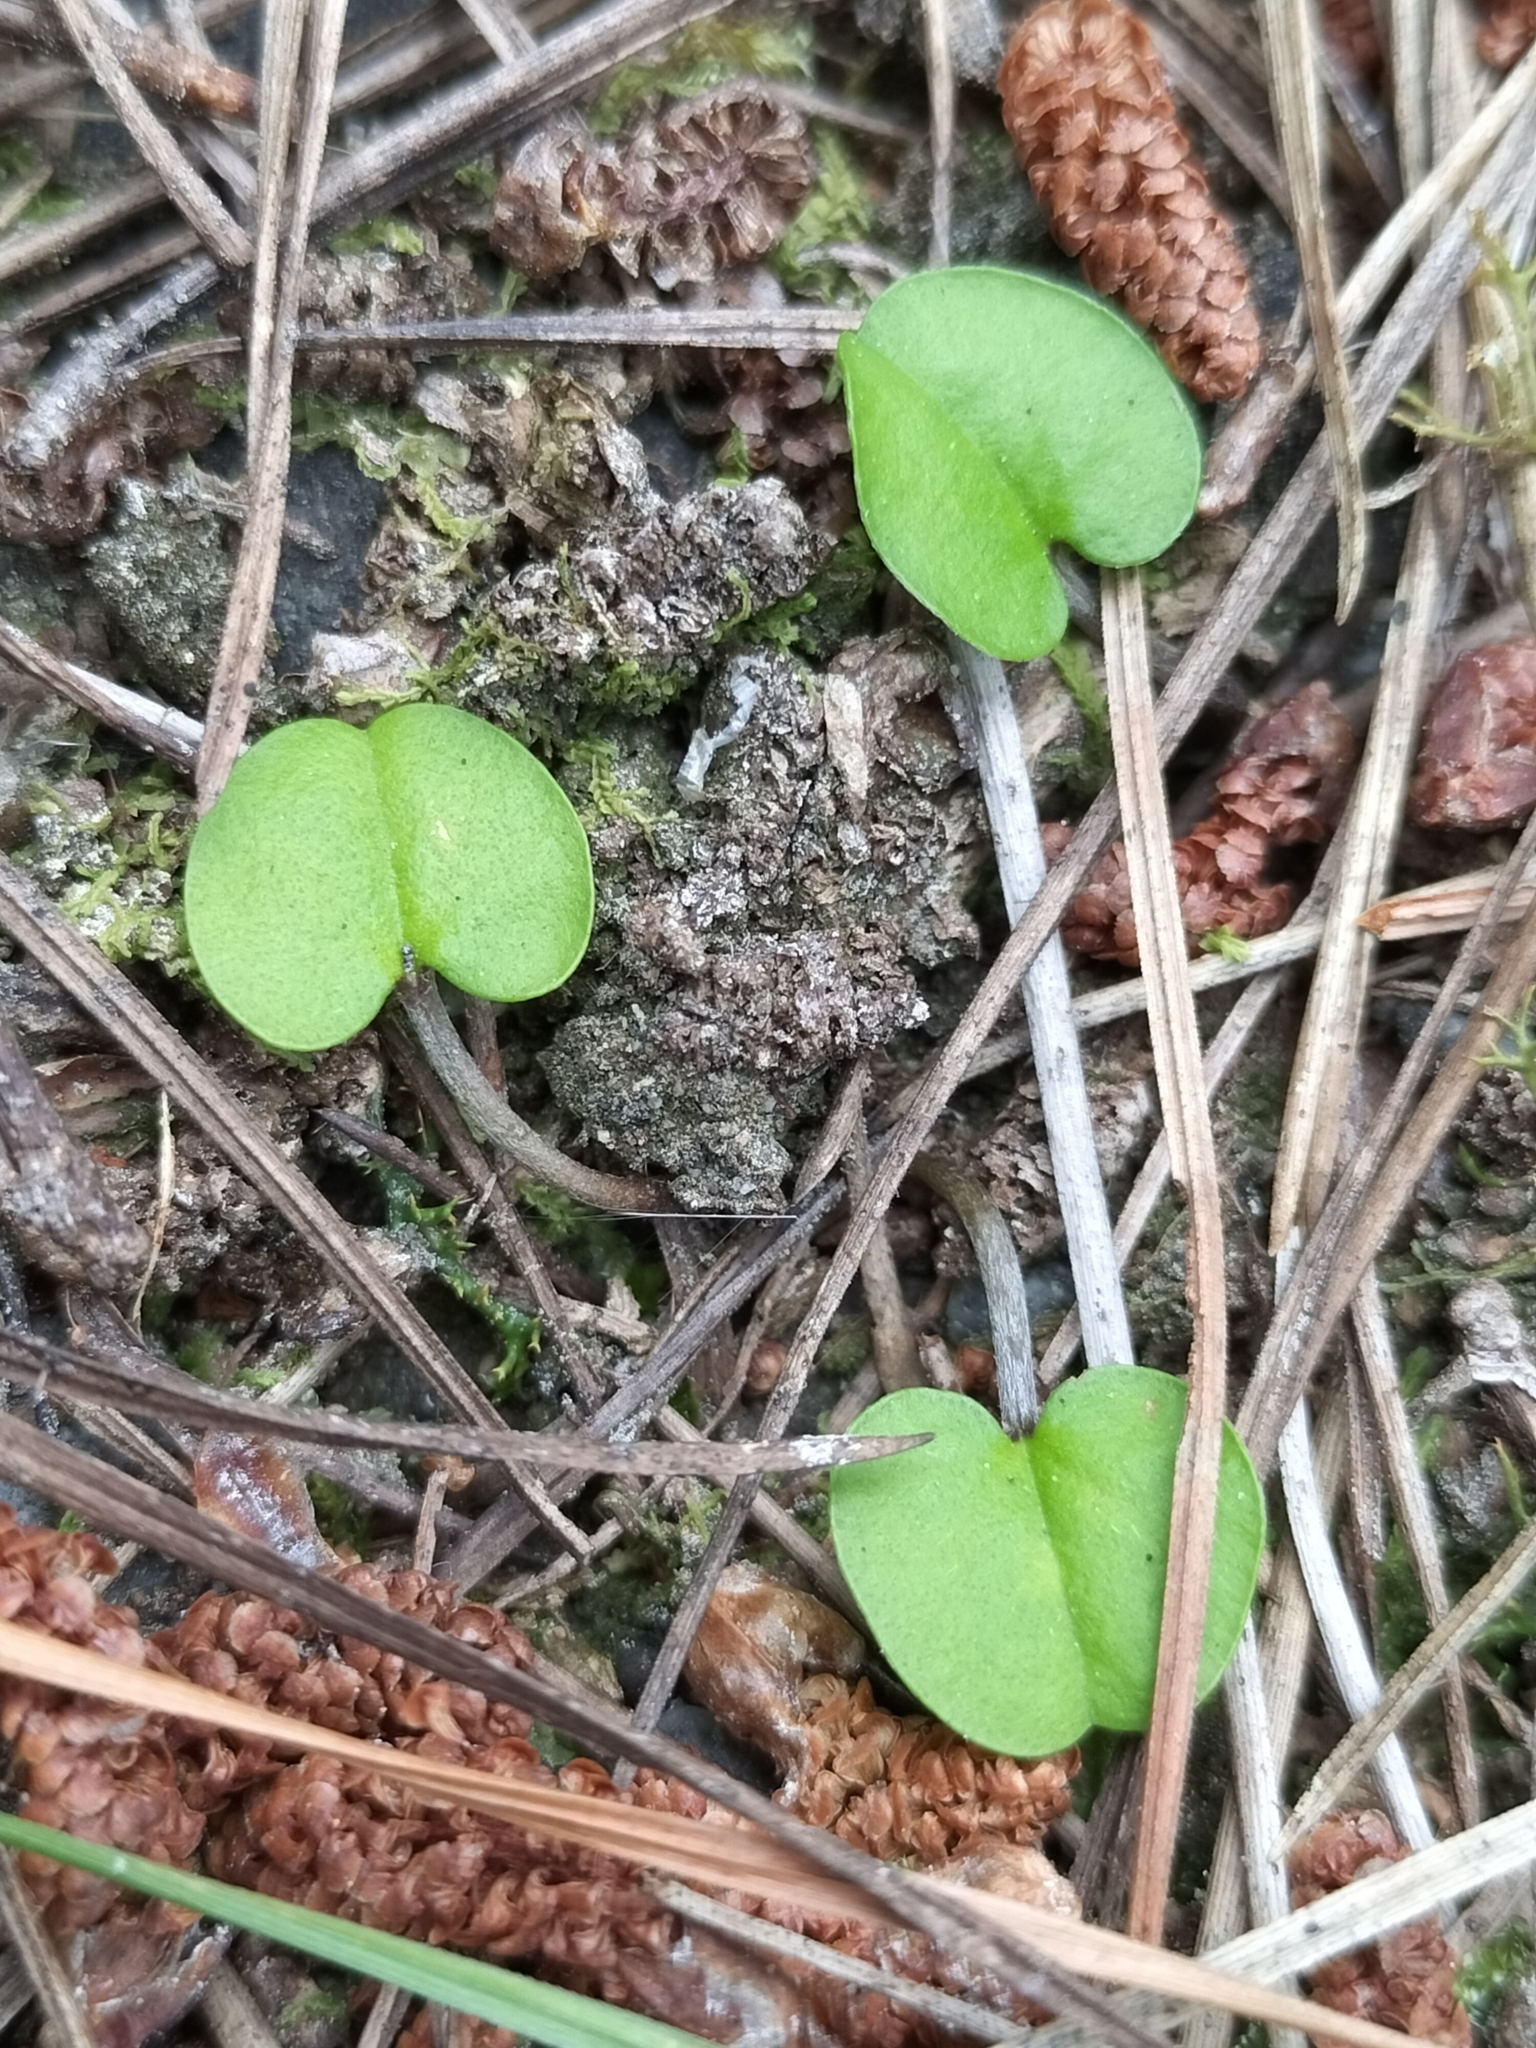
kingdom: Plantae
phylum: Tracheophyta
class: Magnoliopsida
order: Solanales
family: Convolvulaceae
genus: Dichondra
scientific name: Dichondra brevifolia
